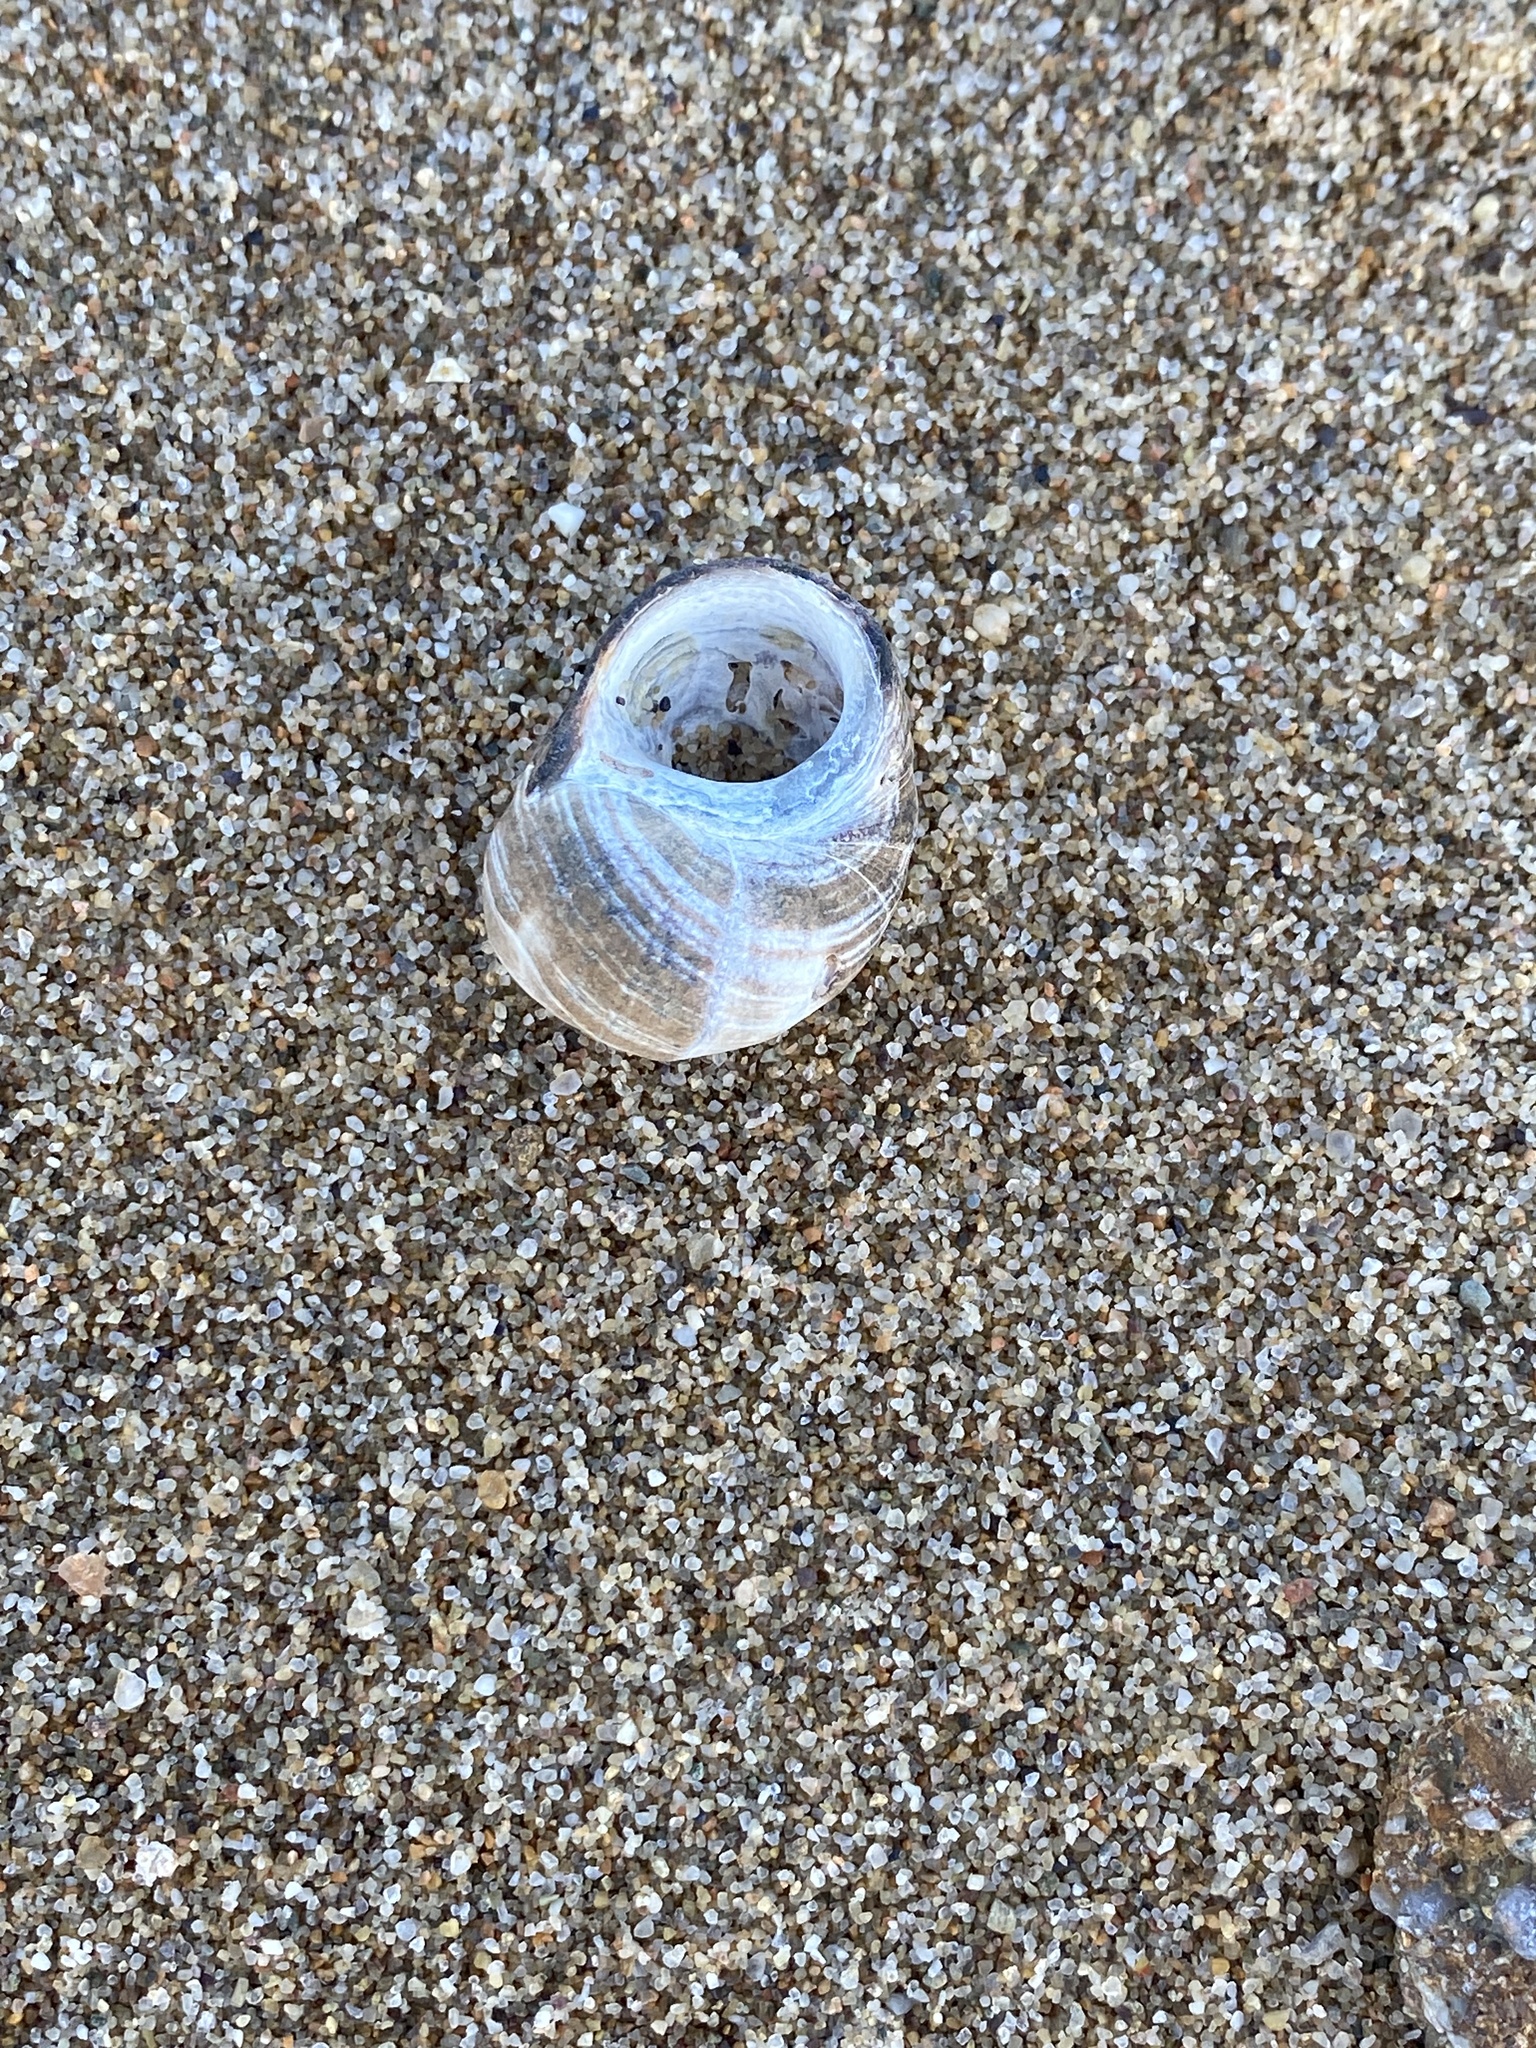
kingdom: Animalia
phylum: Mollusca
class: Gastropoda
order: Littorinimorpha
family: Littorinidae
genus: Littorina
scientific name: Littorina littorea
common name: Common periwinkle
